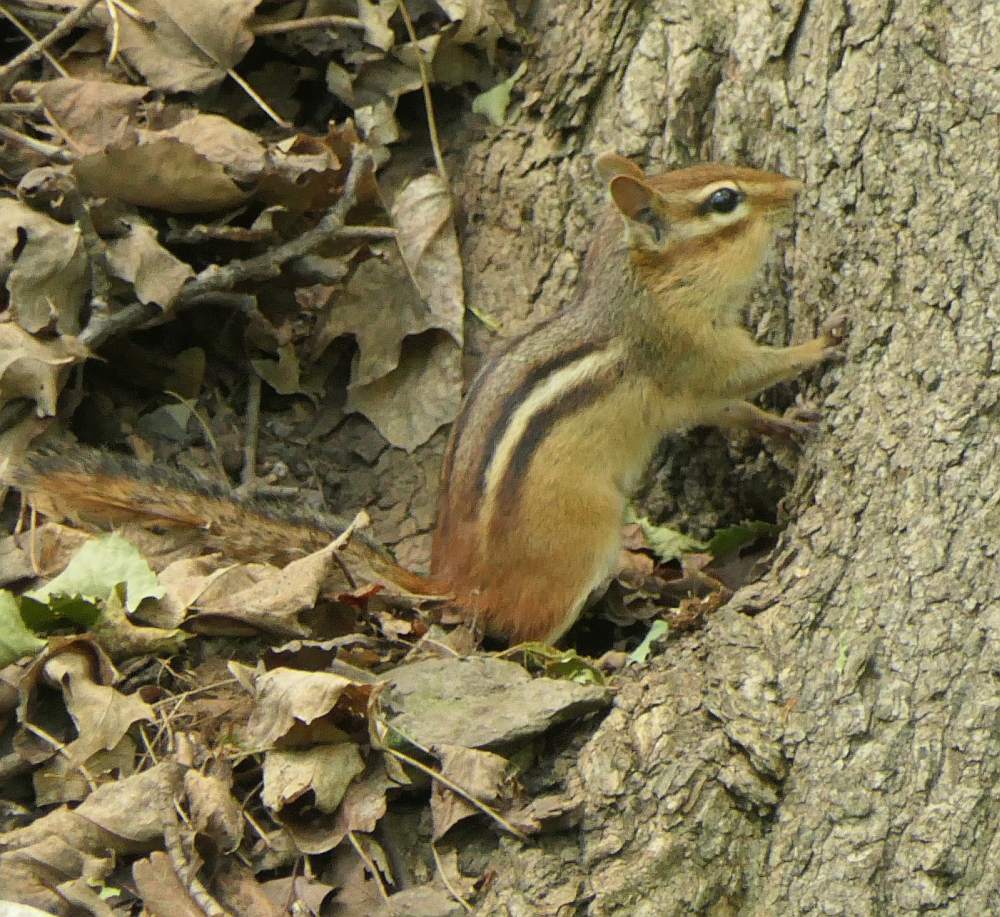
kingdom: Animalia
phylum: Chordata
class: Mammalia
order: Rodentia
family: Sciuridae
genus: Tamias
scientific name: Tamias striatus
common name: Eastern chipmunk
